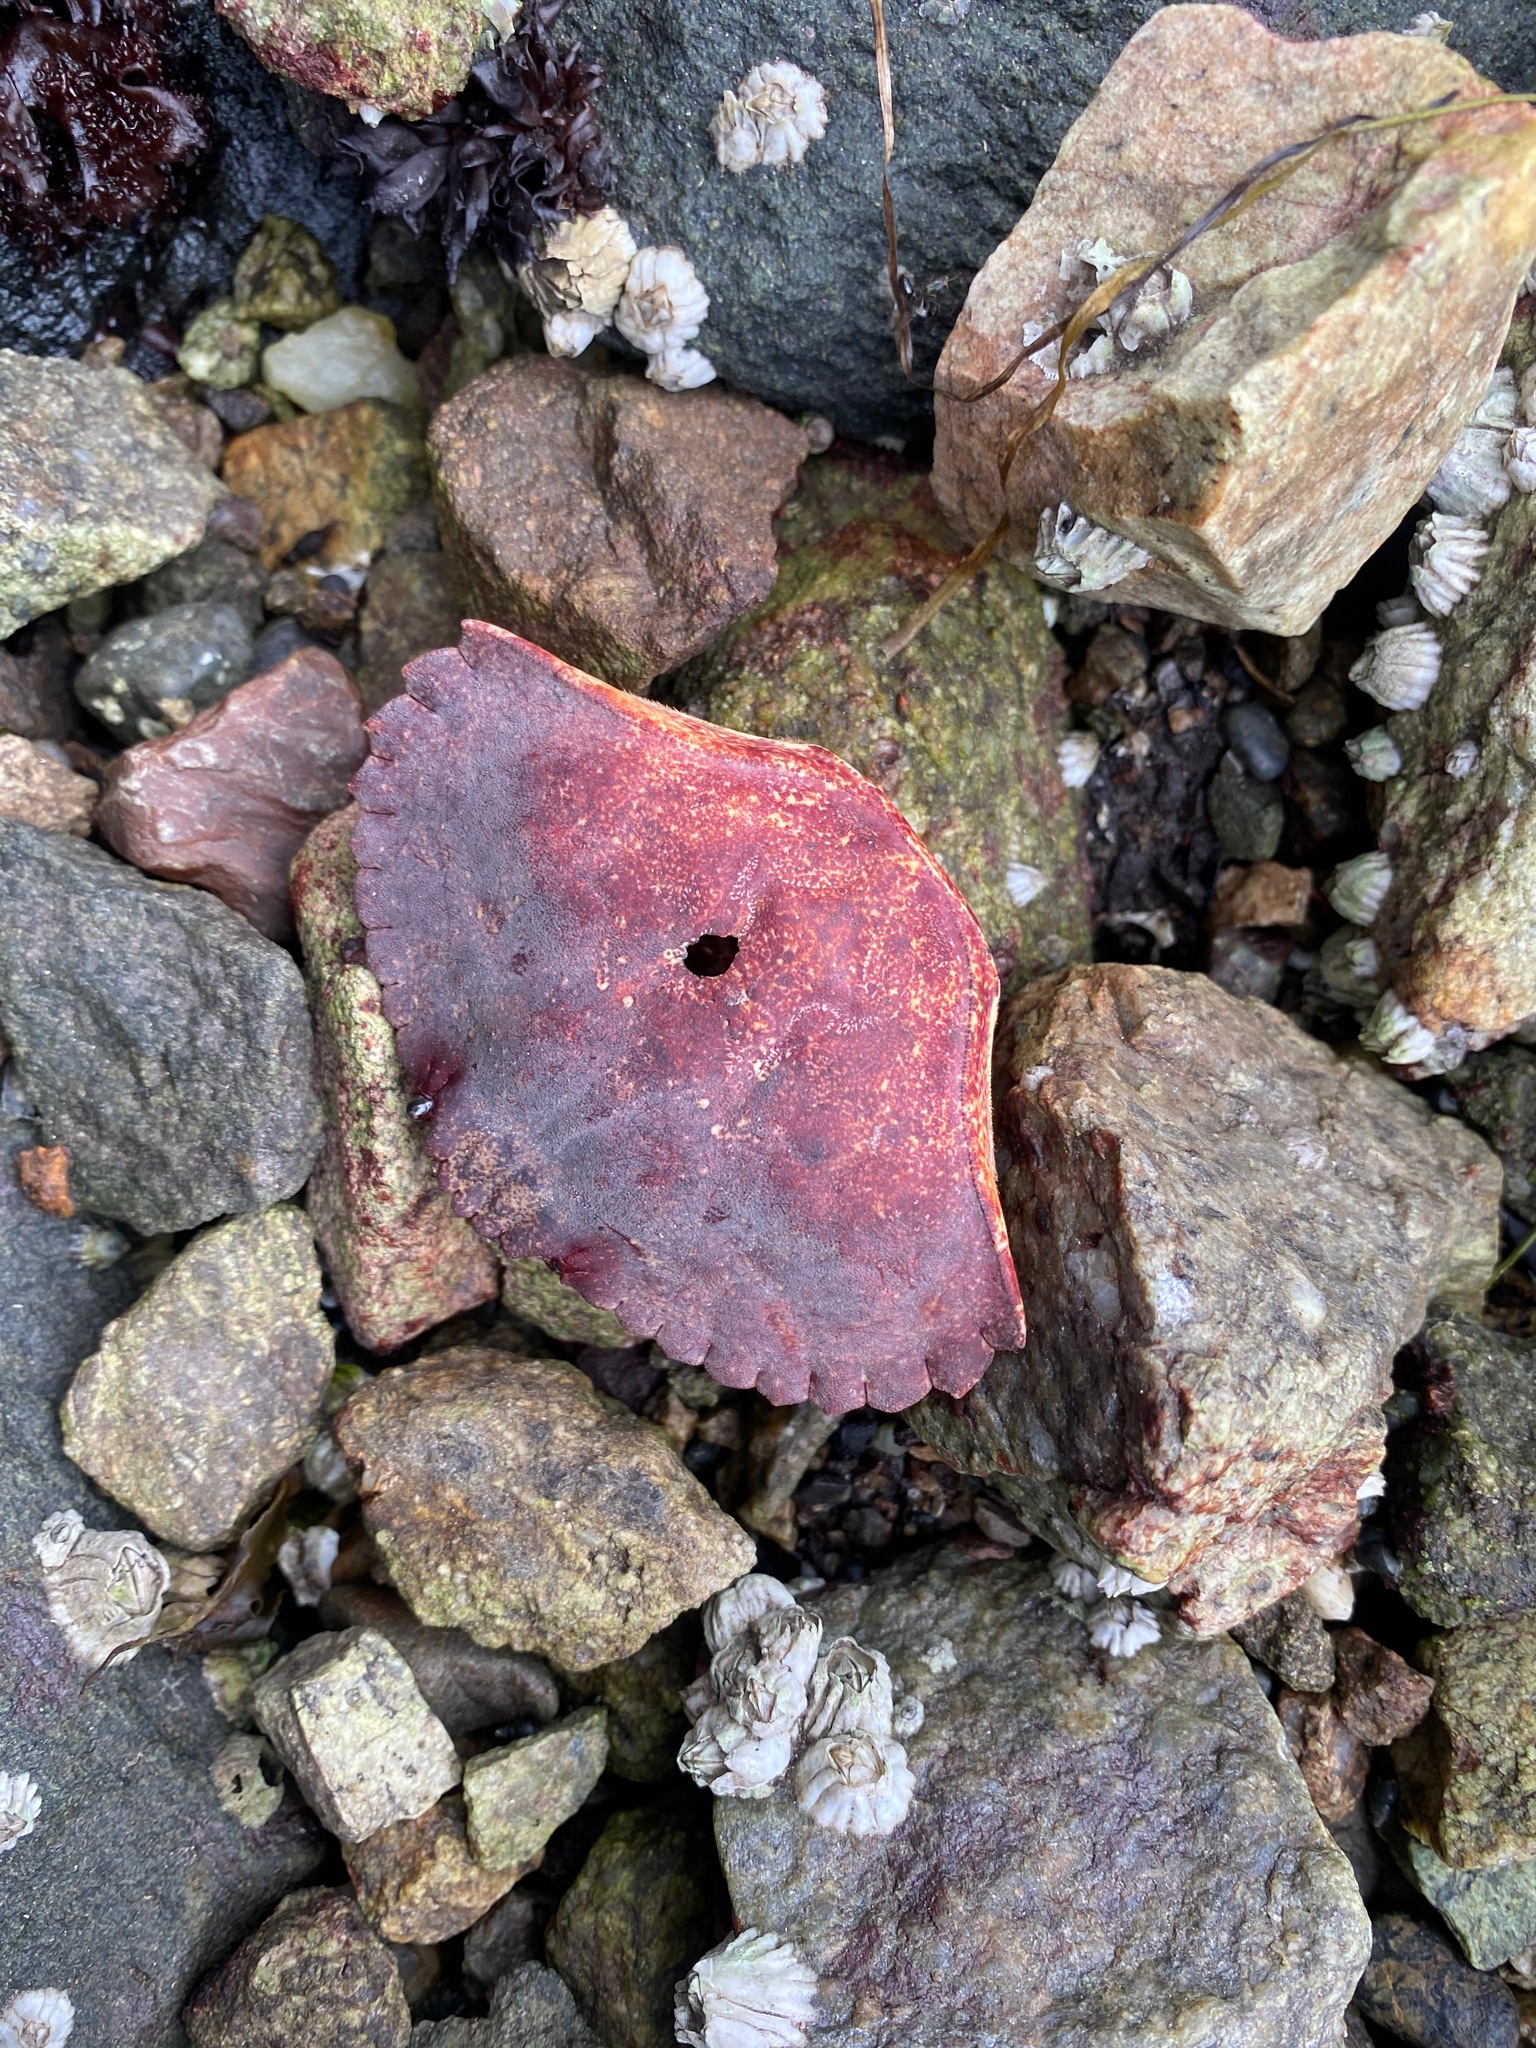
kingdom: Animalia
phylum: Arthropoda
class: Malacostraca
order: Decapoda
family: Cancridae
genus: Cancer
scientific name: Cancer productus
